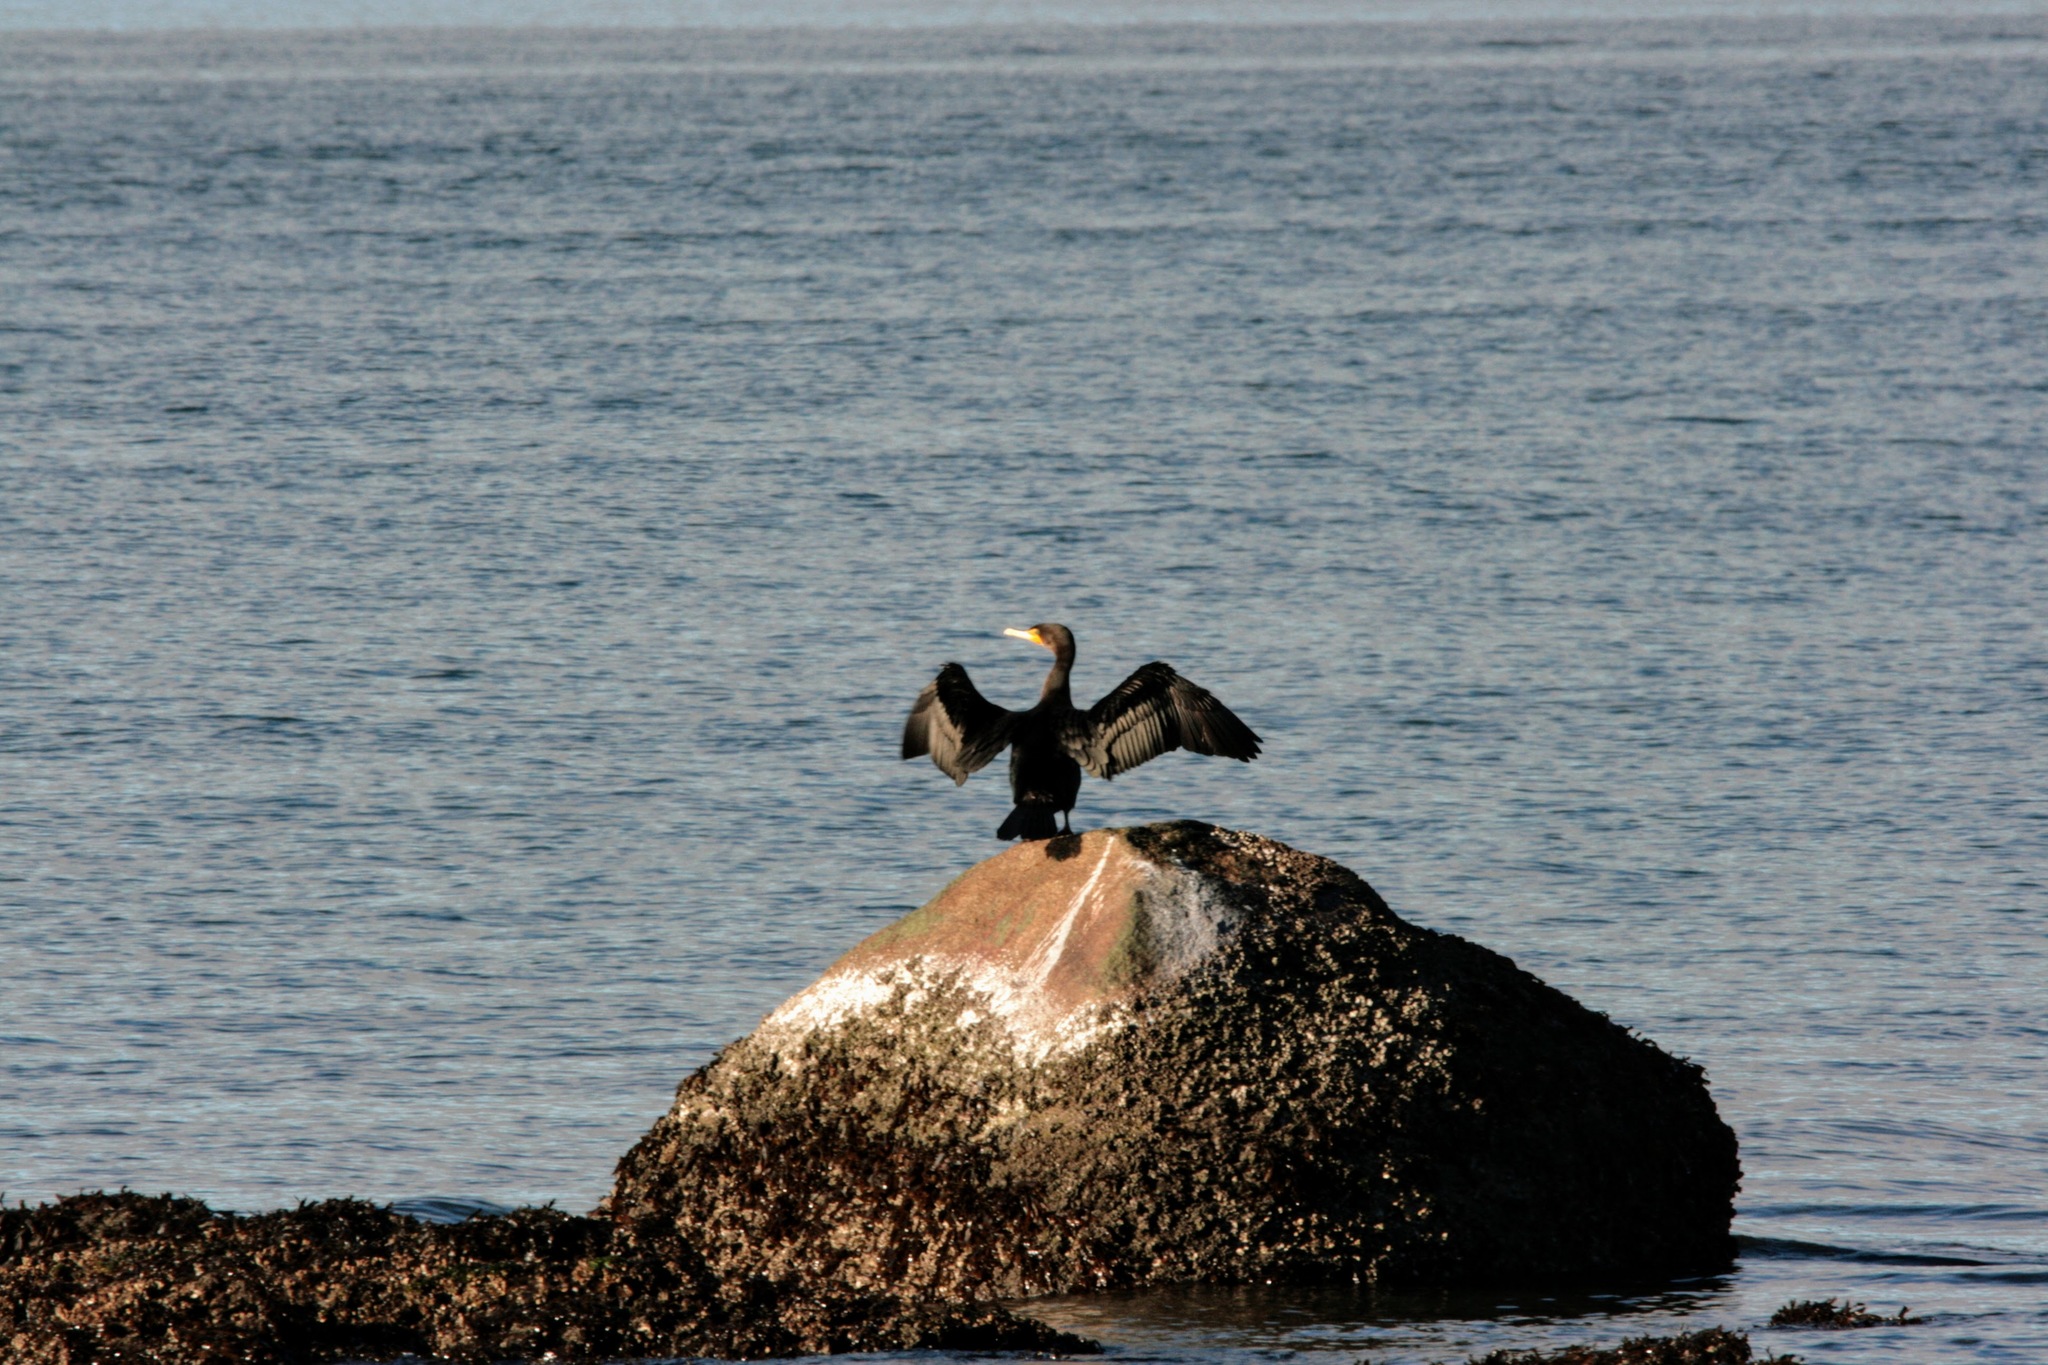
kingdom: Animalia
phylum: Chordata
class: Aves
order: Suliformes
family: Phalacrocoracidae
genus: Phalacrocorax
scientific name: Phalacrocorax auritus
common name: Double-crested cormorant
